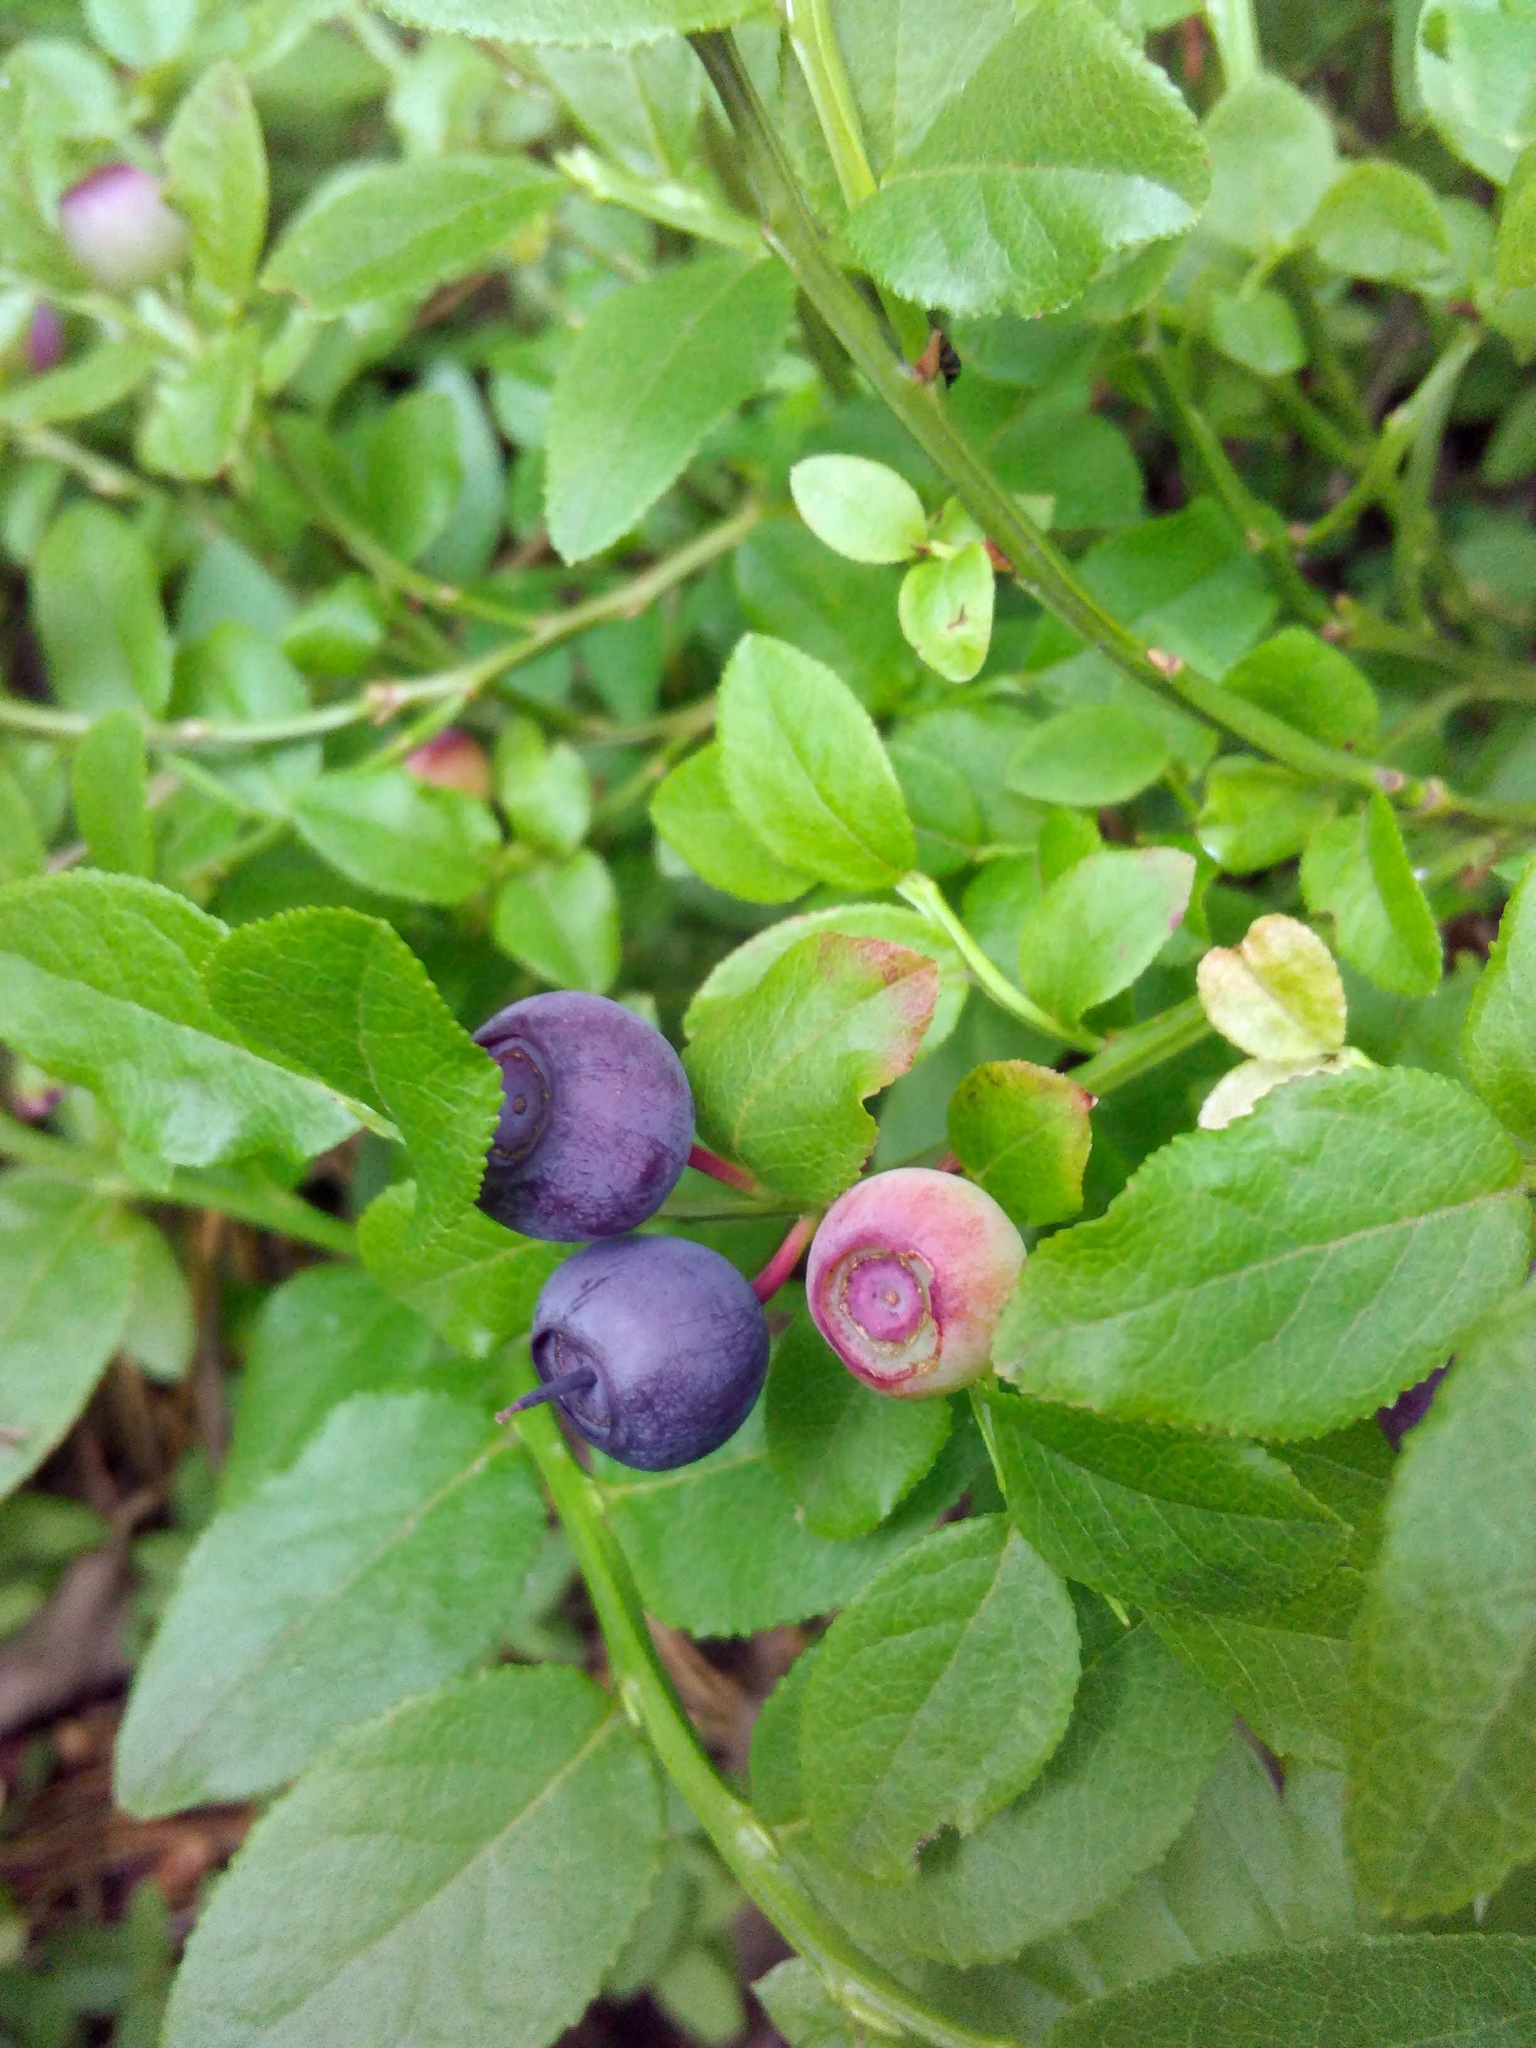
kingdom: Plantae
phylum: Tracheophyta
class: Magnoliopsida
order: Ericales
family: Ericaceae
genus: Vaccinium
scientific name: Vaccinium myrtillus
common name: Bilberry
